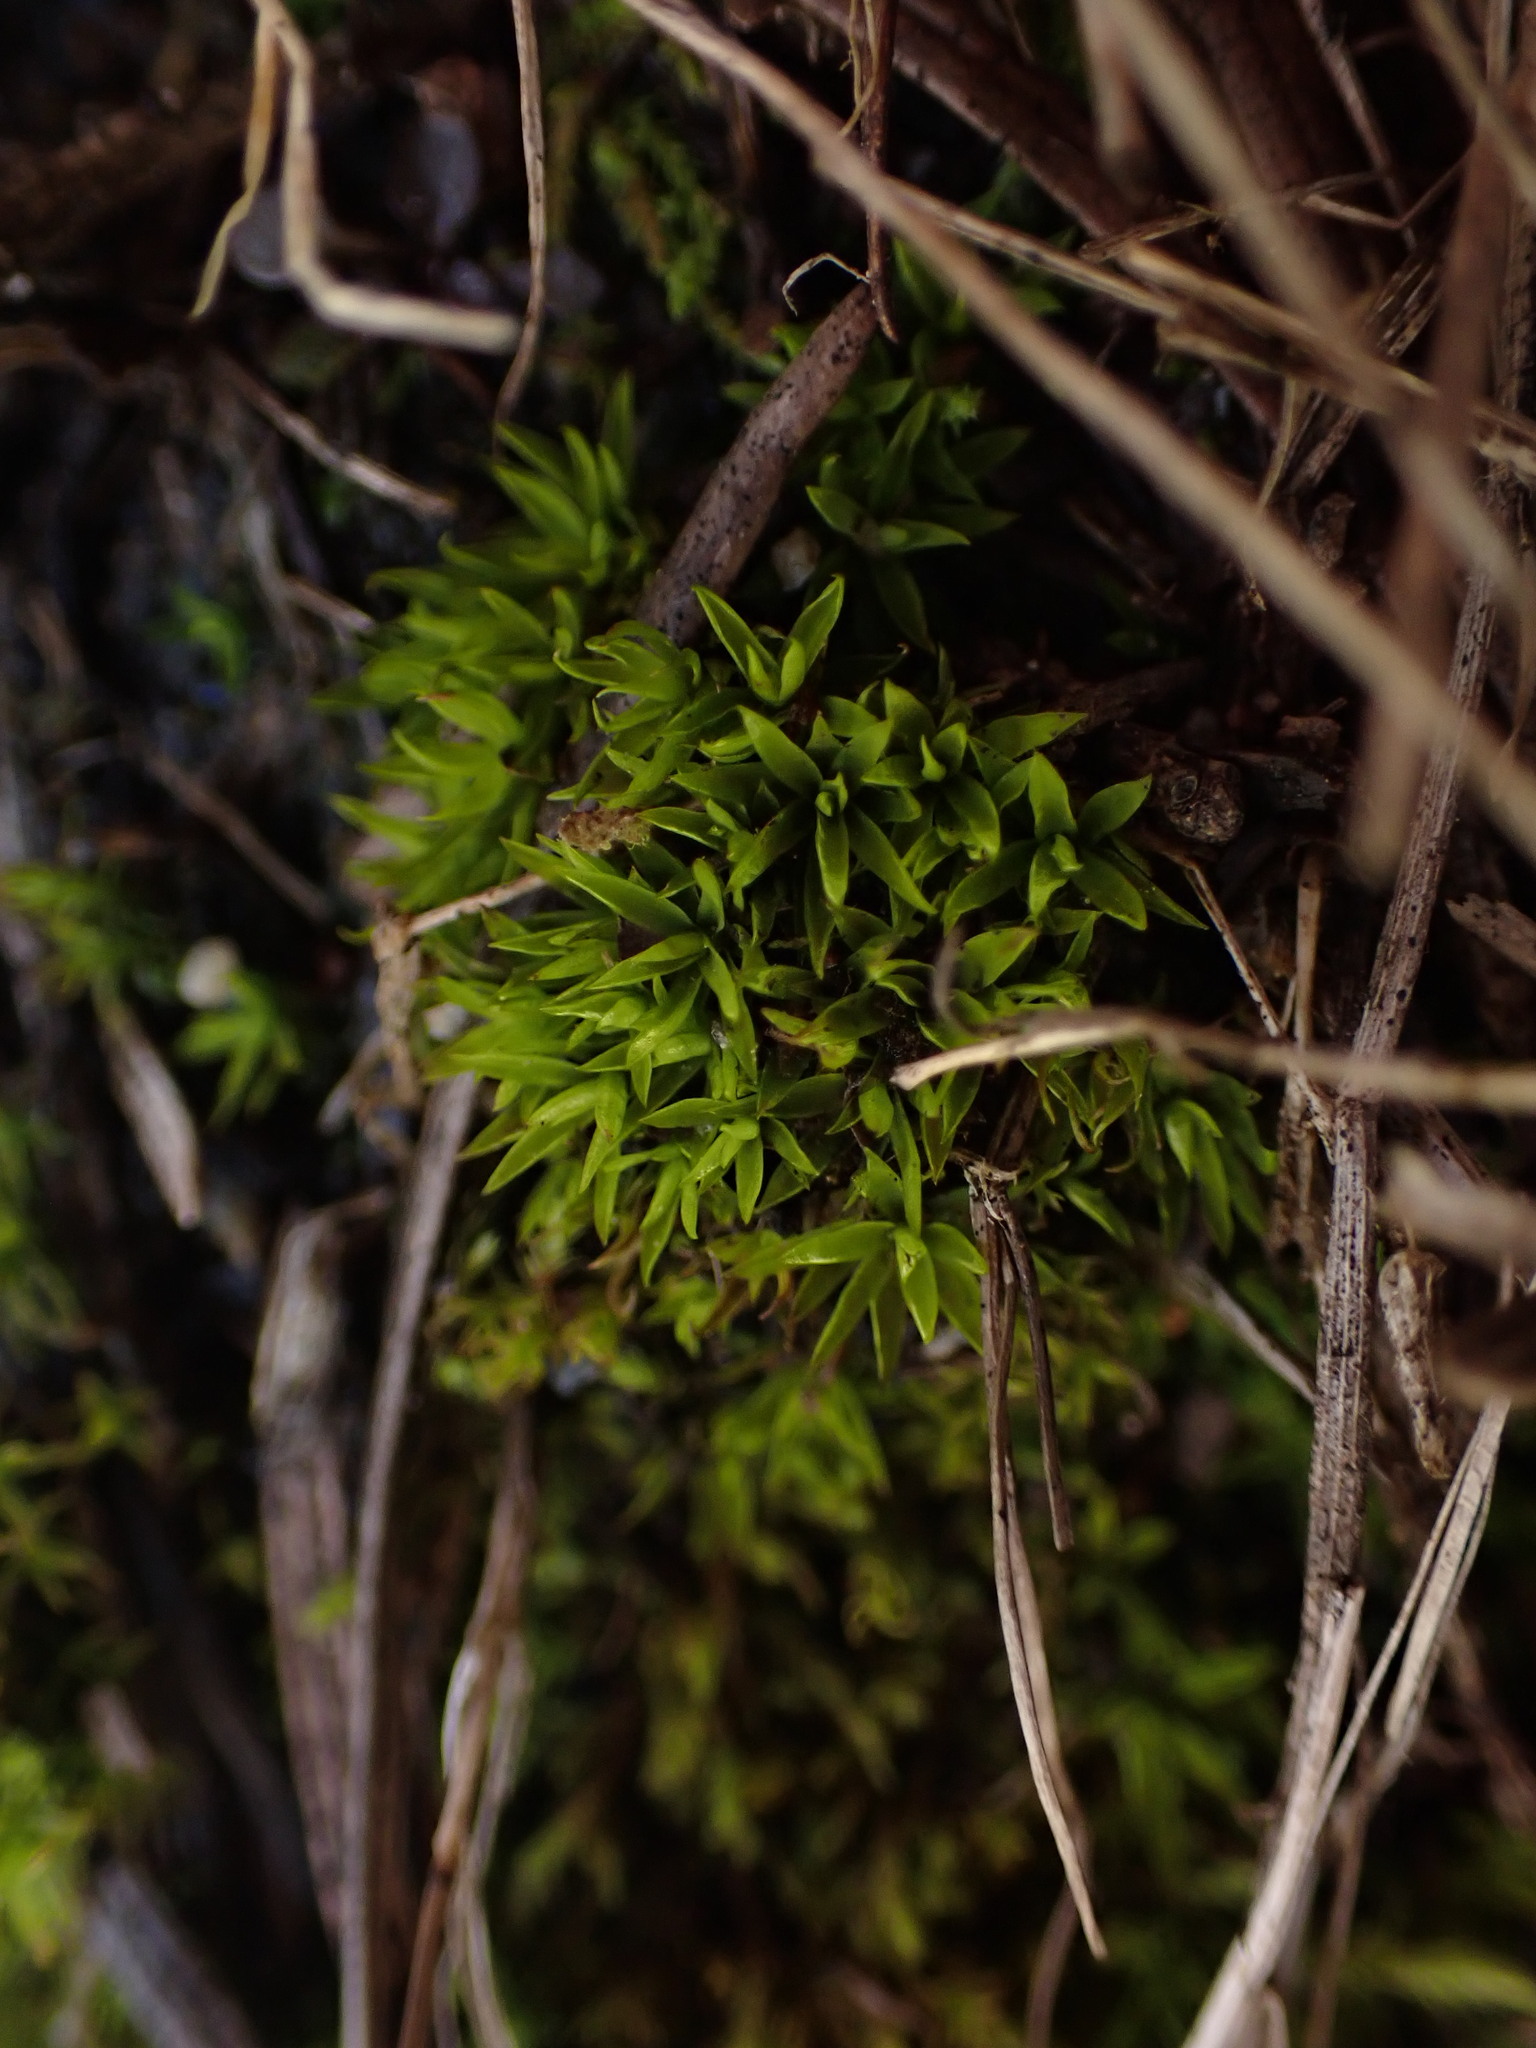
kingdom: Plantae
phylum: Bryophyta
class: Bryopsida
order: Scouleriales
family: Timmiellaceae
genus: Timmiella
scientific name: Timmiella crassinervis
